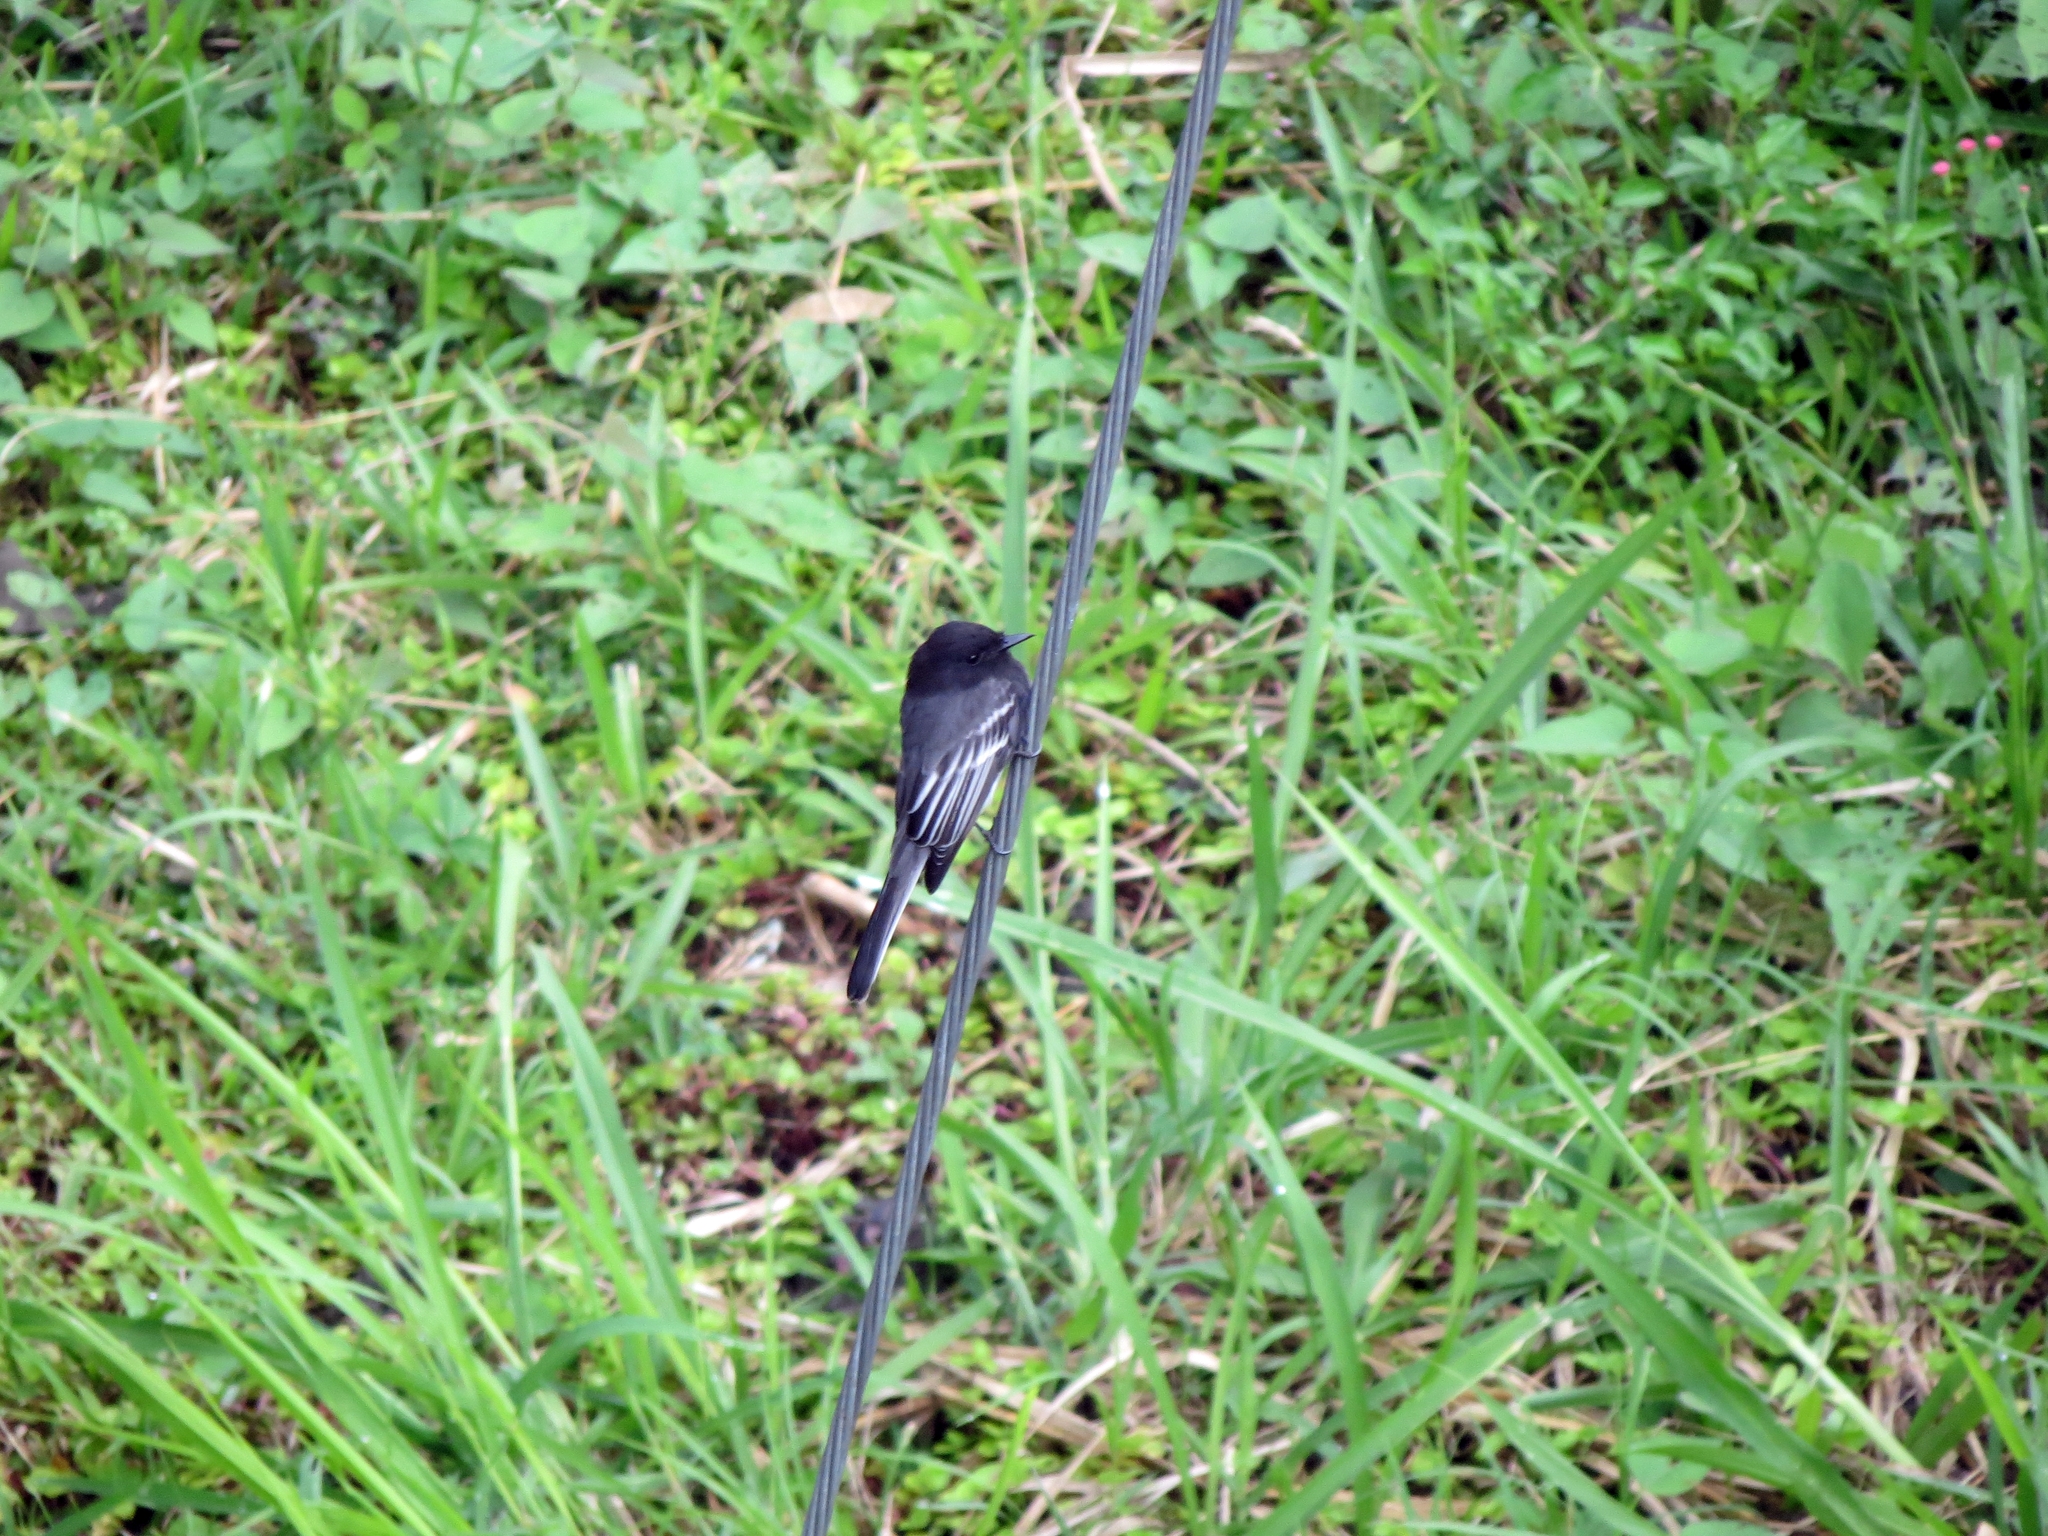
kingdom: Animalia
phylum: Chordata
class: Aves
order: Passeriformes
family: Tyrannidae
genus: Sayornis
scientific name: Sayornis nigricans
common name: Black phoebe
